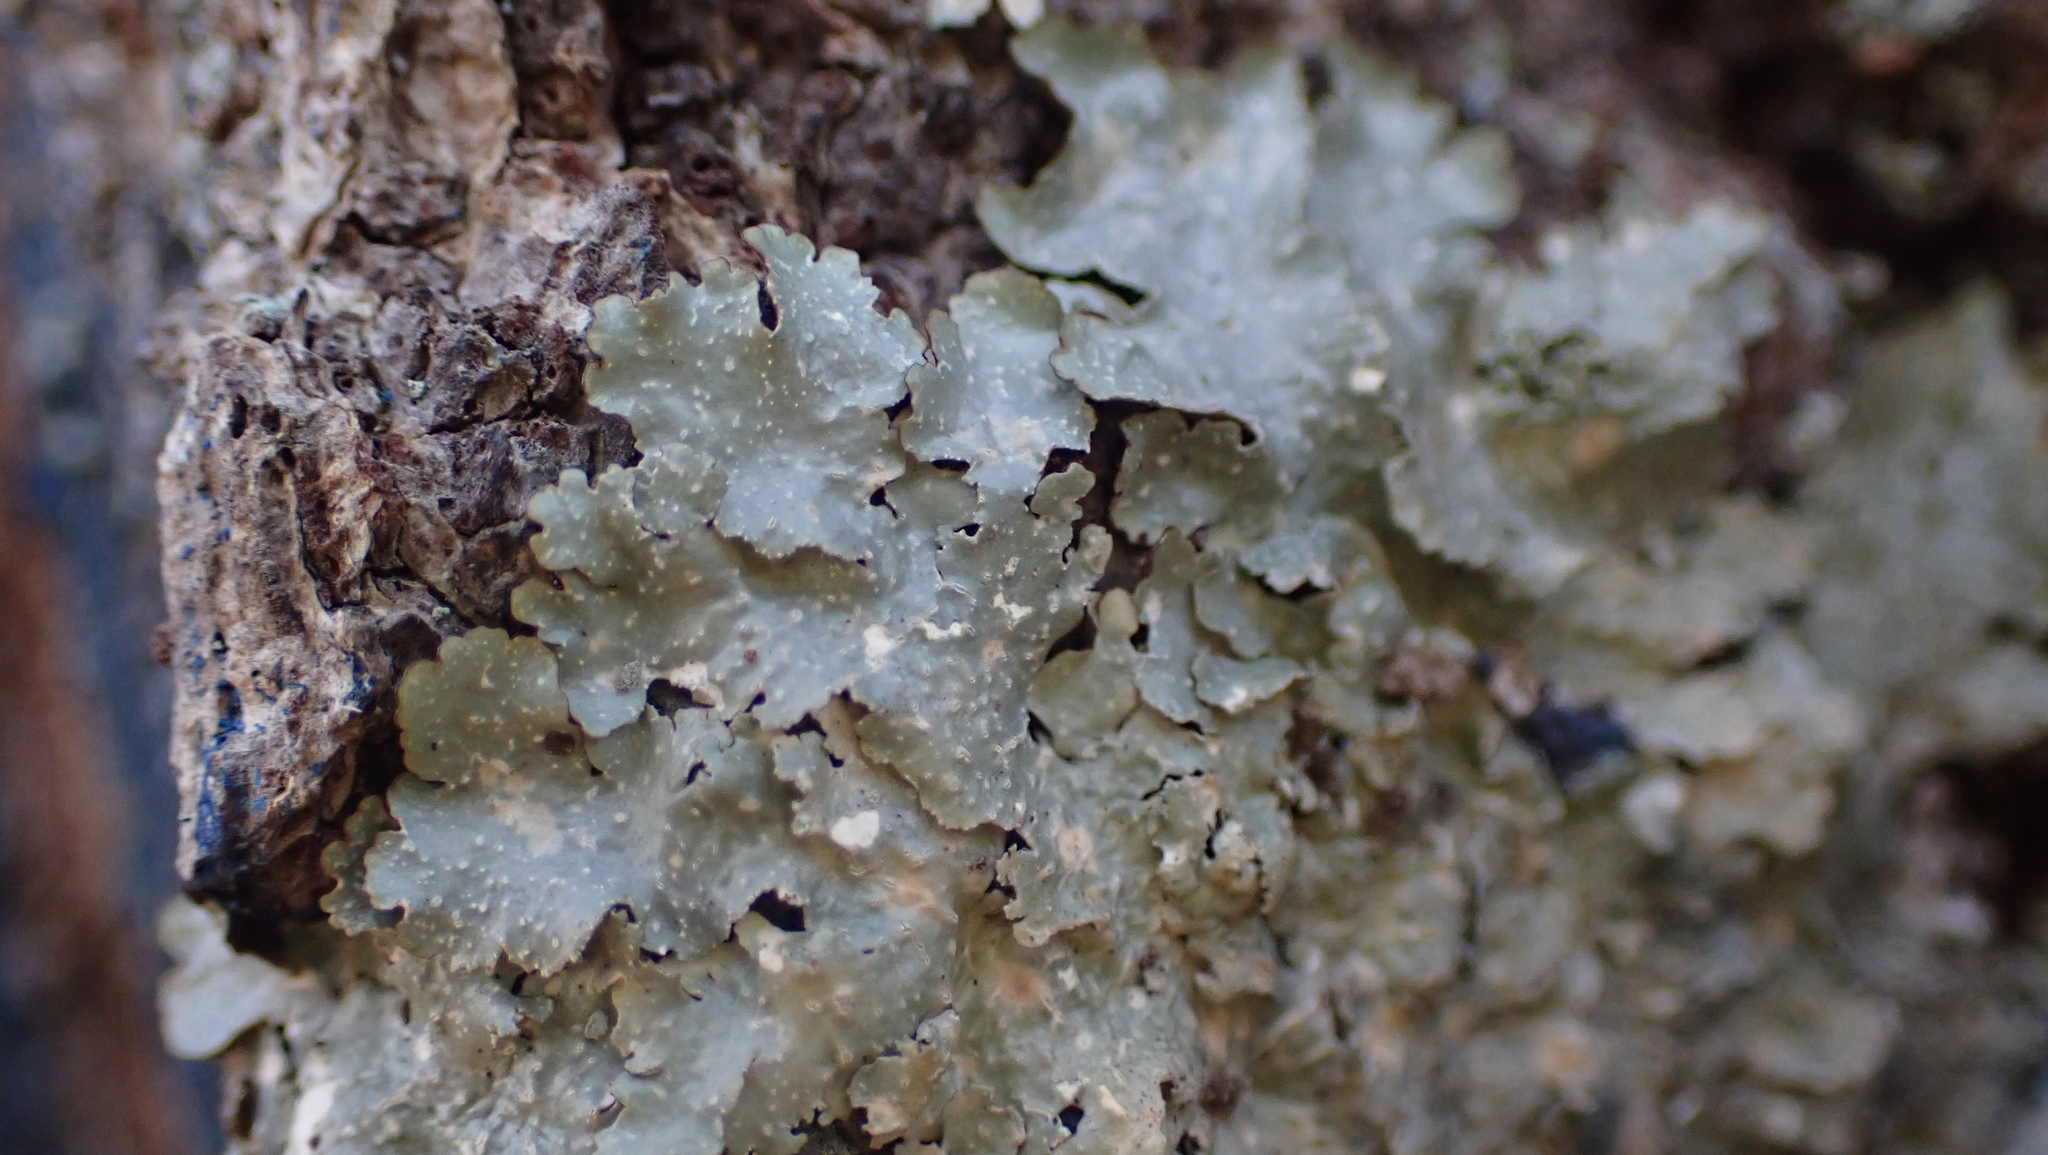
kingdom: Fungi
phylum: Ascomycota
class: Lecanoromycetes
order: Lecanorales
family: Parmeliaceae
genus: Punctelia
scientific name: Punctelia rudecta
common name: Rough speckled shield lichen
